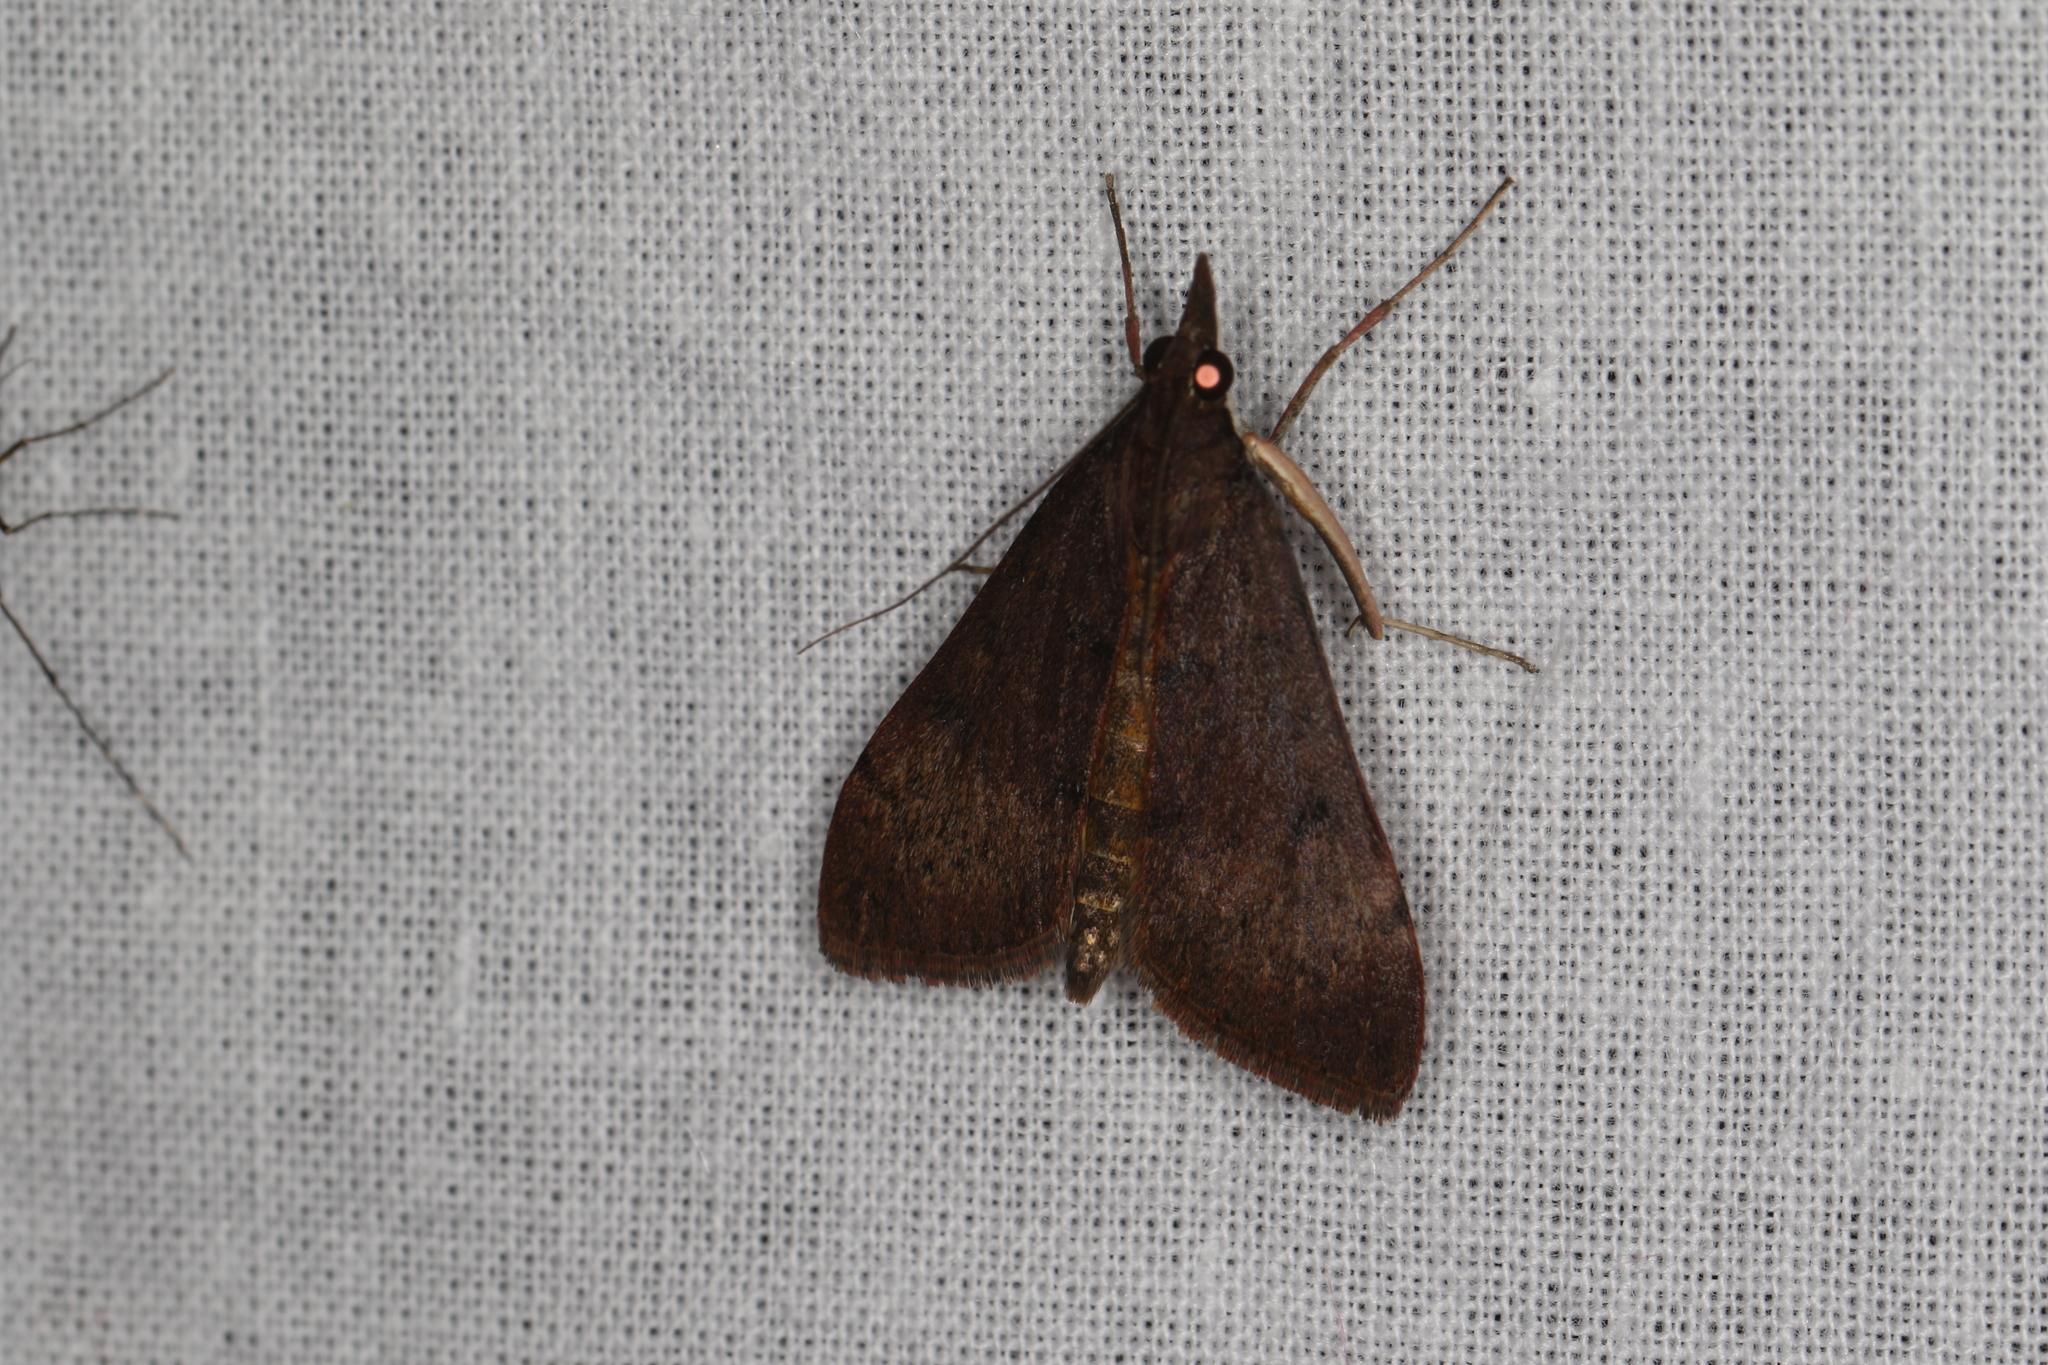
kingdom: Animalia
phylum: Arthropoda
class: Insecta
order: Lepidoptera
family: Crambidae
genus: Uresiphita
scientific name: Uresiphita ornithopteralis
